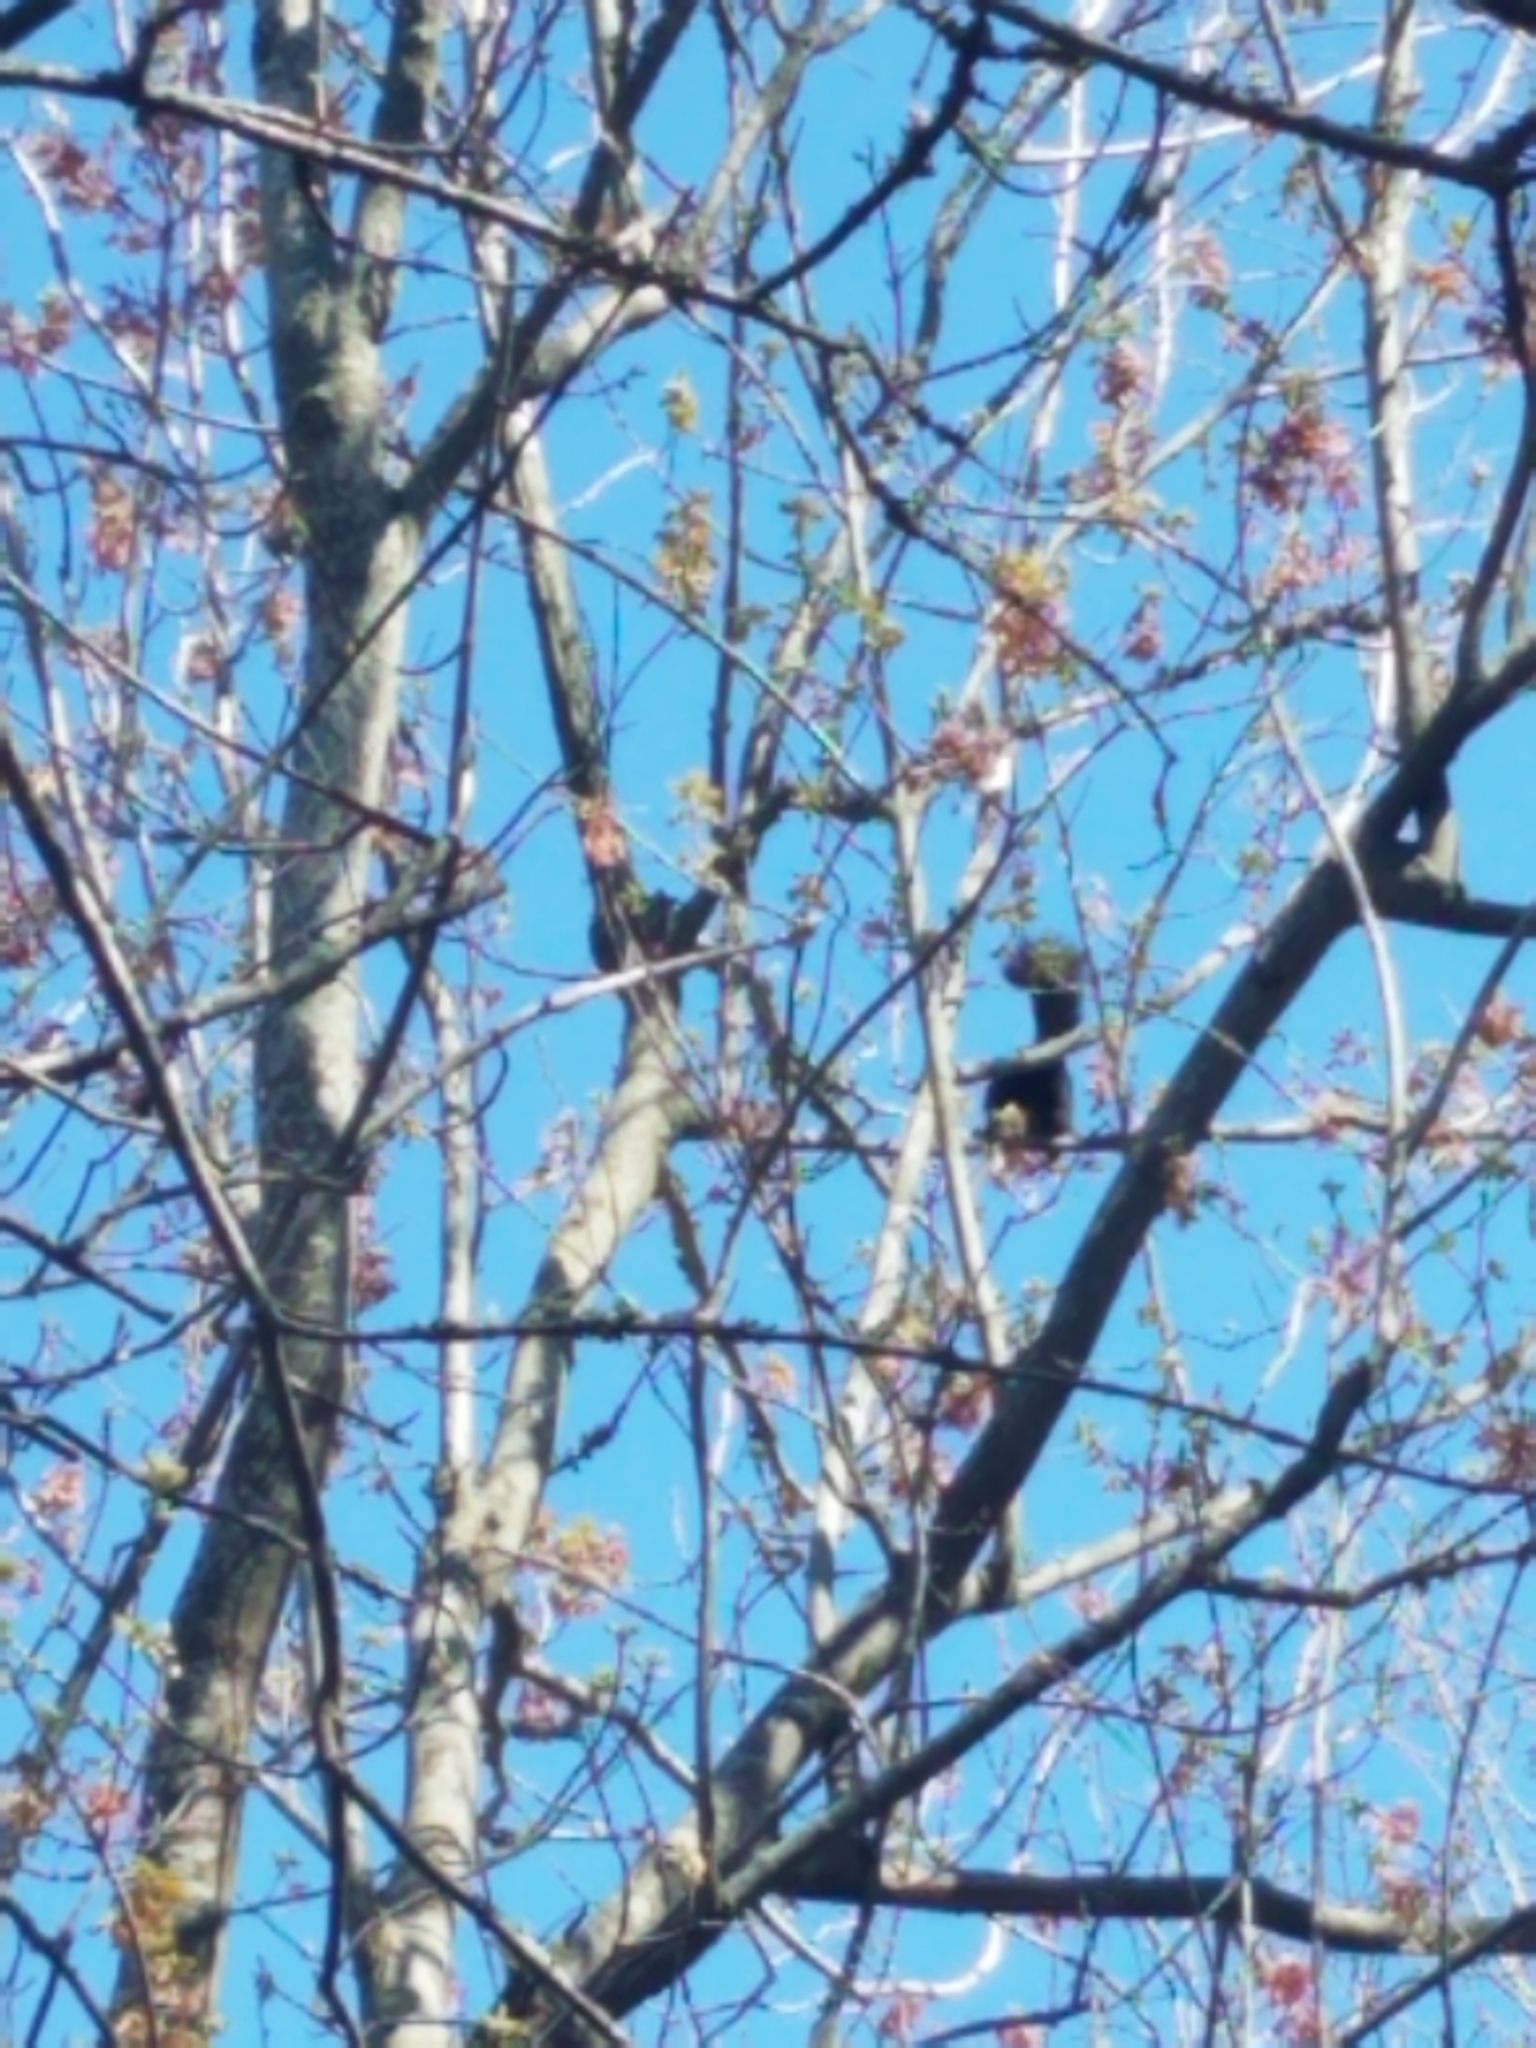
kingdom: Animalia
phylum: Chordata
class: Mammalia
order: Rodentia
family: Sciuridae
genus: Sciurus
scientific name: Sciurus niger
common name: Fox squirrel
